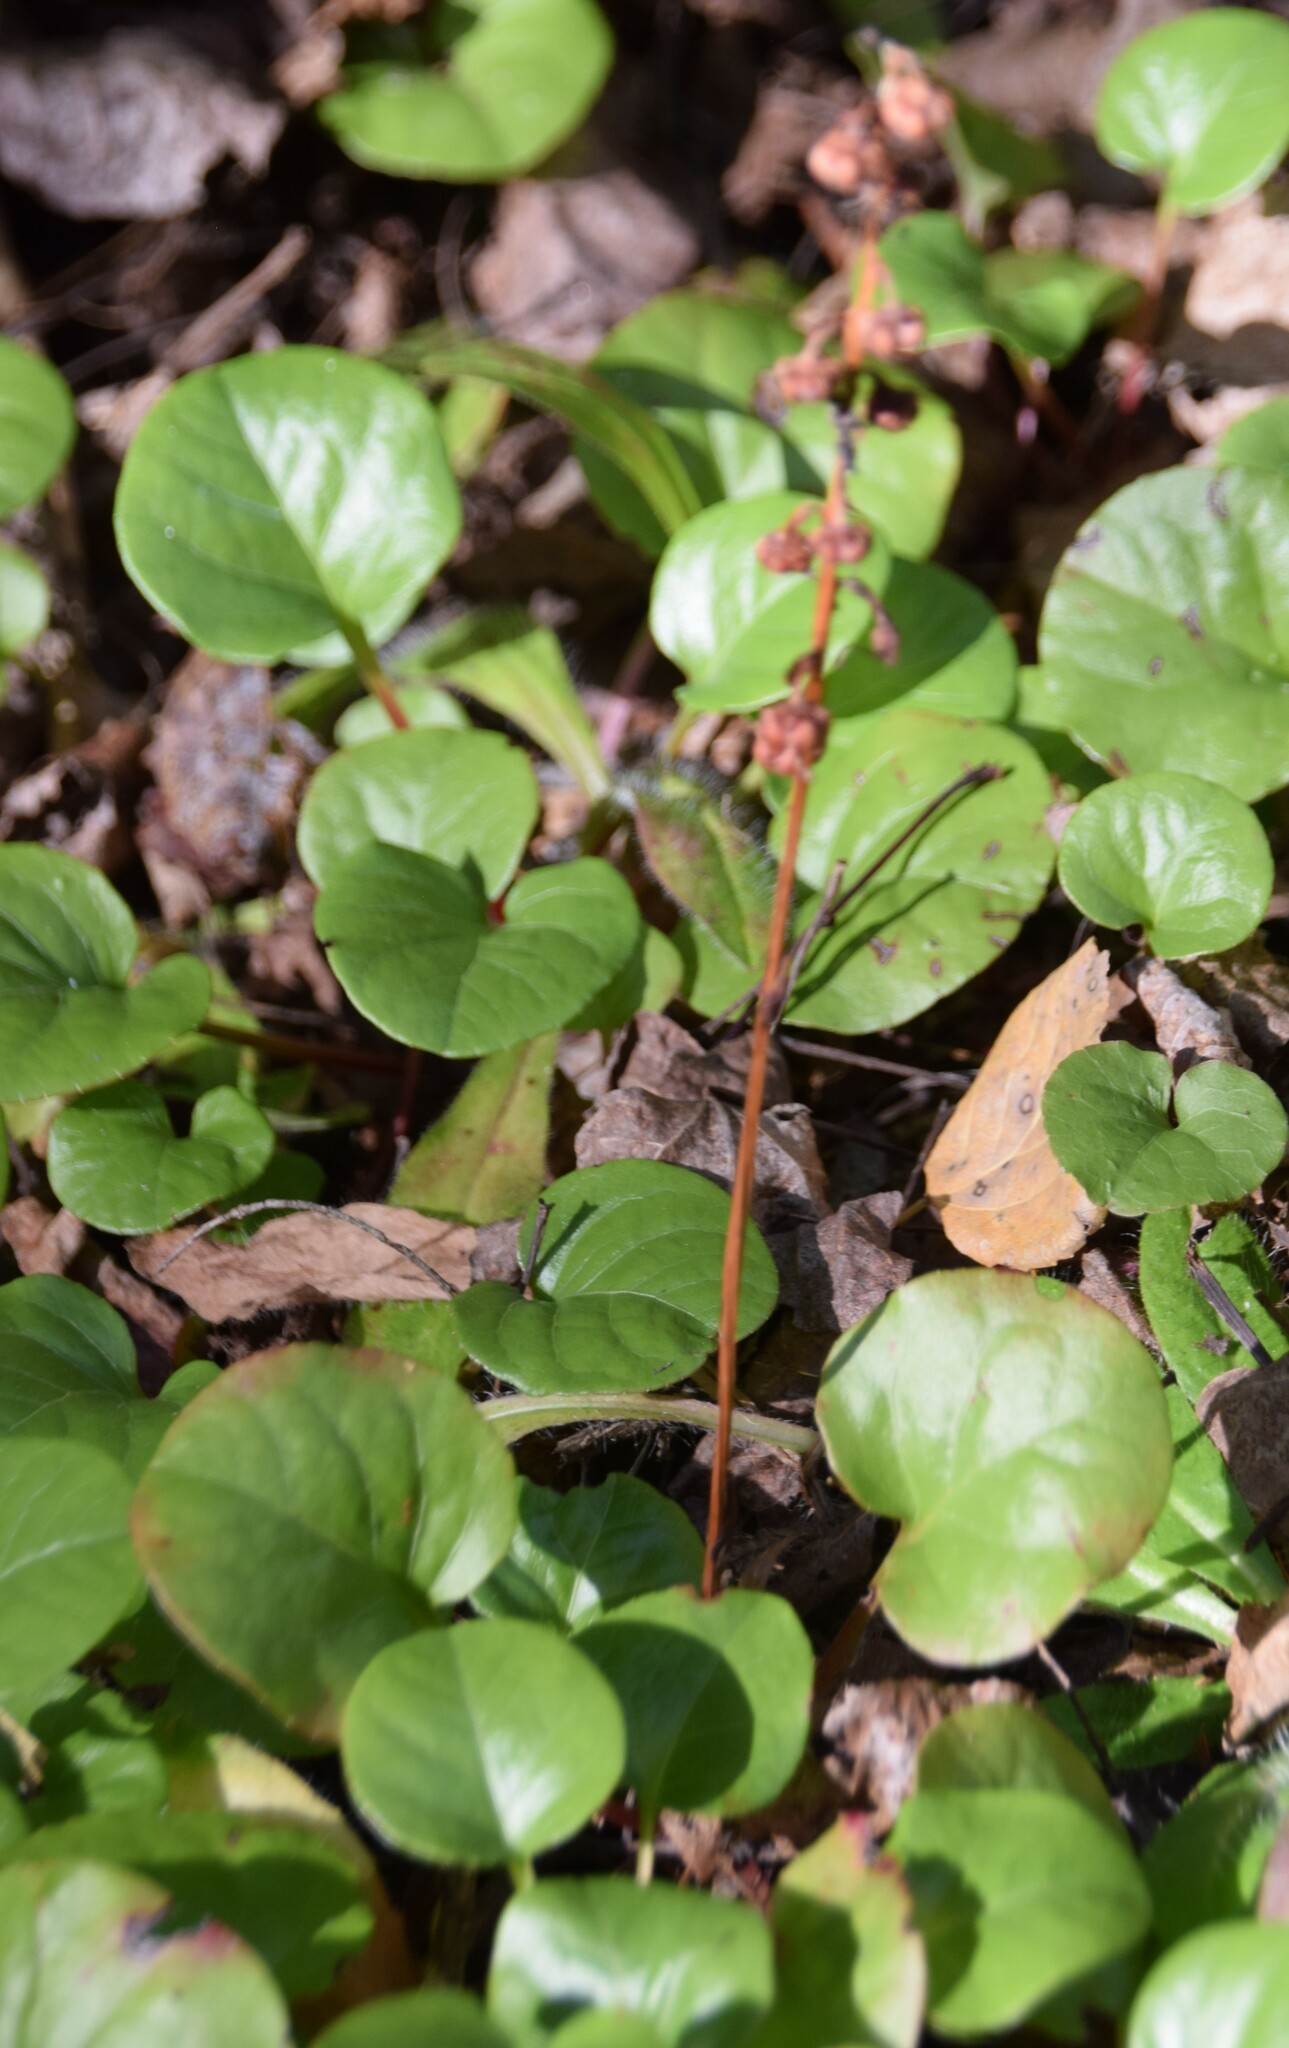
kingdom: Plantae
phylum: Tracheophyta
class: Magnoliopsida
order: Ericales
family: Ericaceae
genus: Pyrola
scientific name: Pyrola asarifolia
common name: Bog wintergreen
